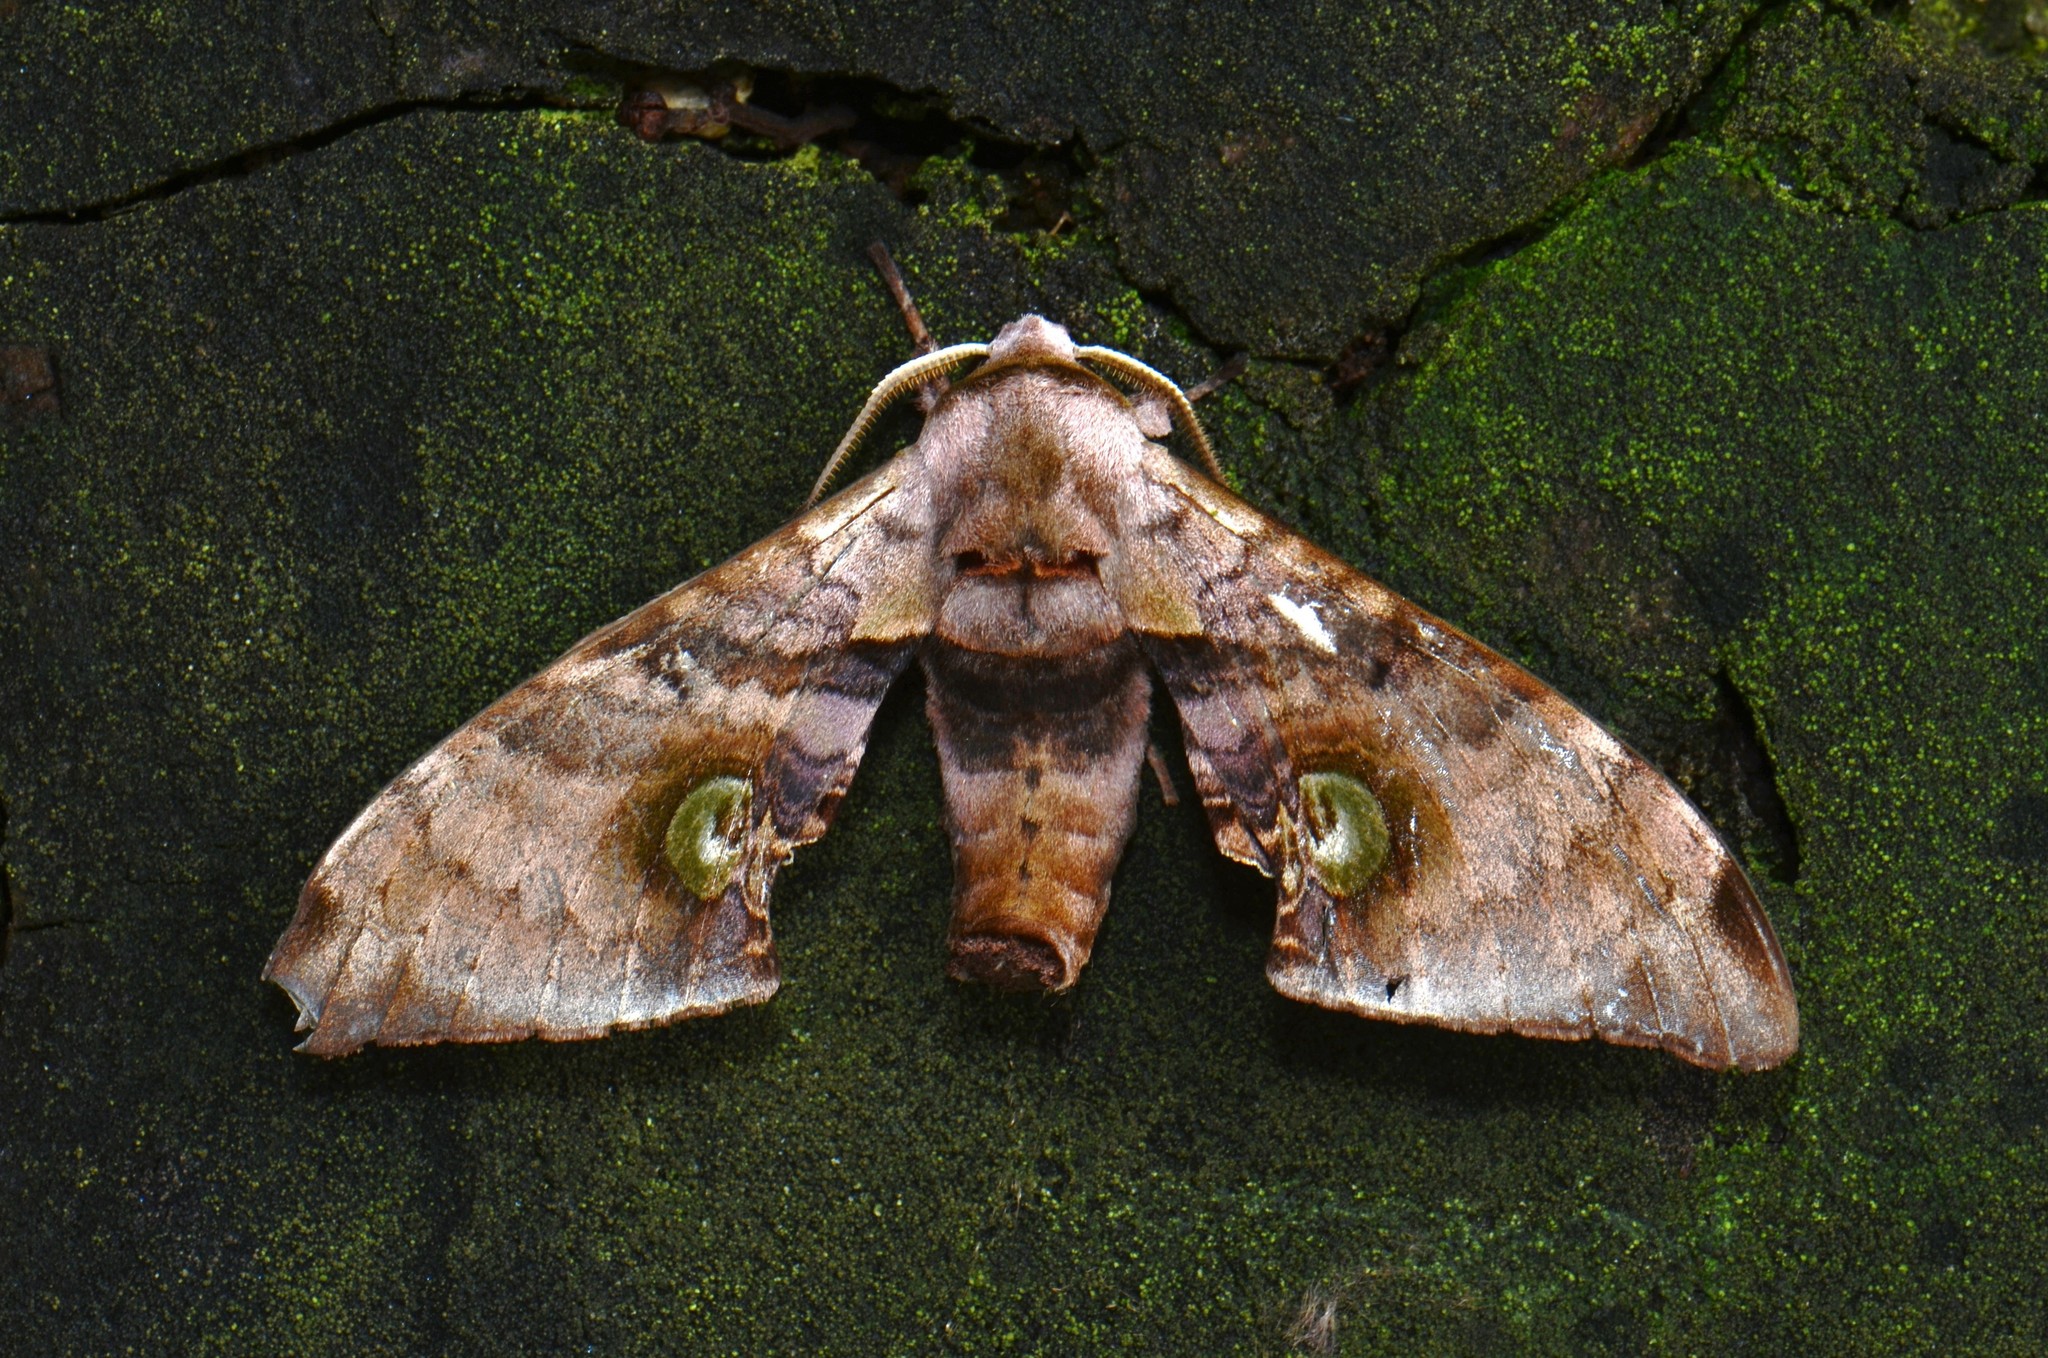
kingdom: Animalia
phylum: Arthropoda
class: Insecta
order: Lepidoptera
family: Sphingidae
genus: Daphnusa
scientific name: Daphnusa ocellaris
